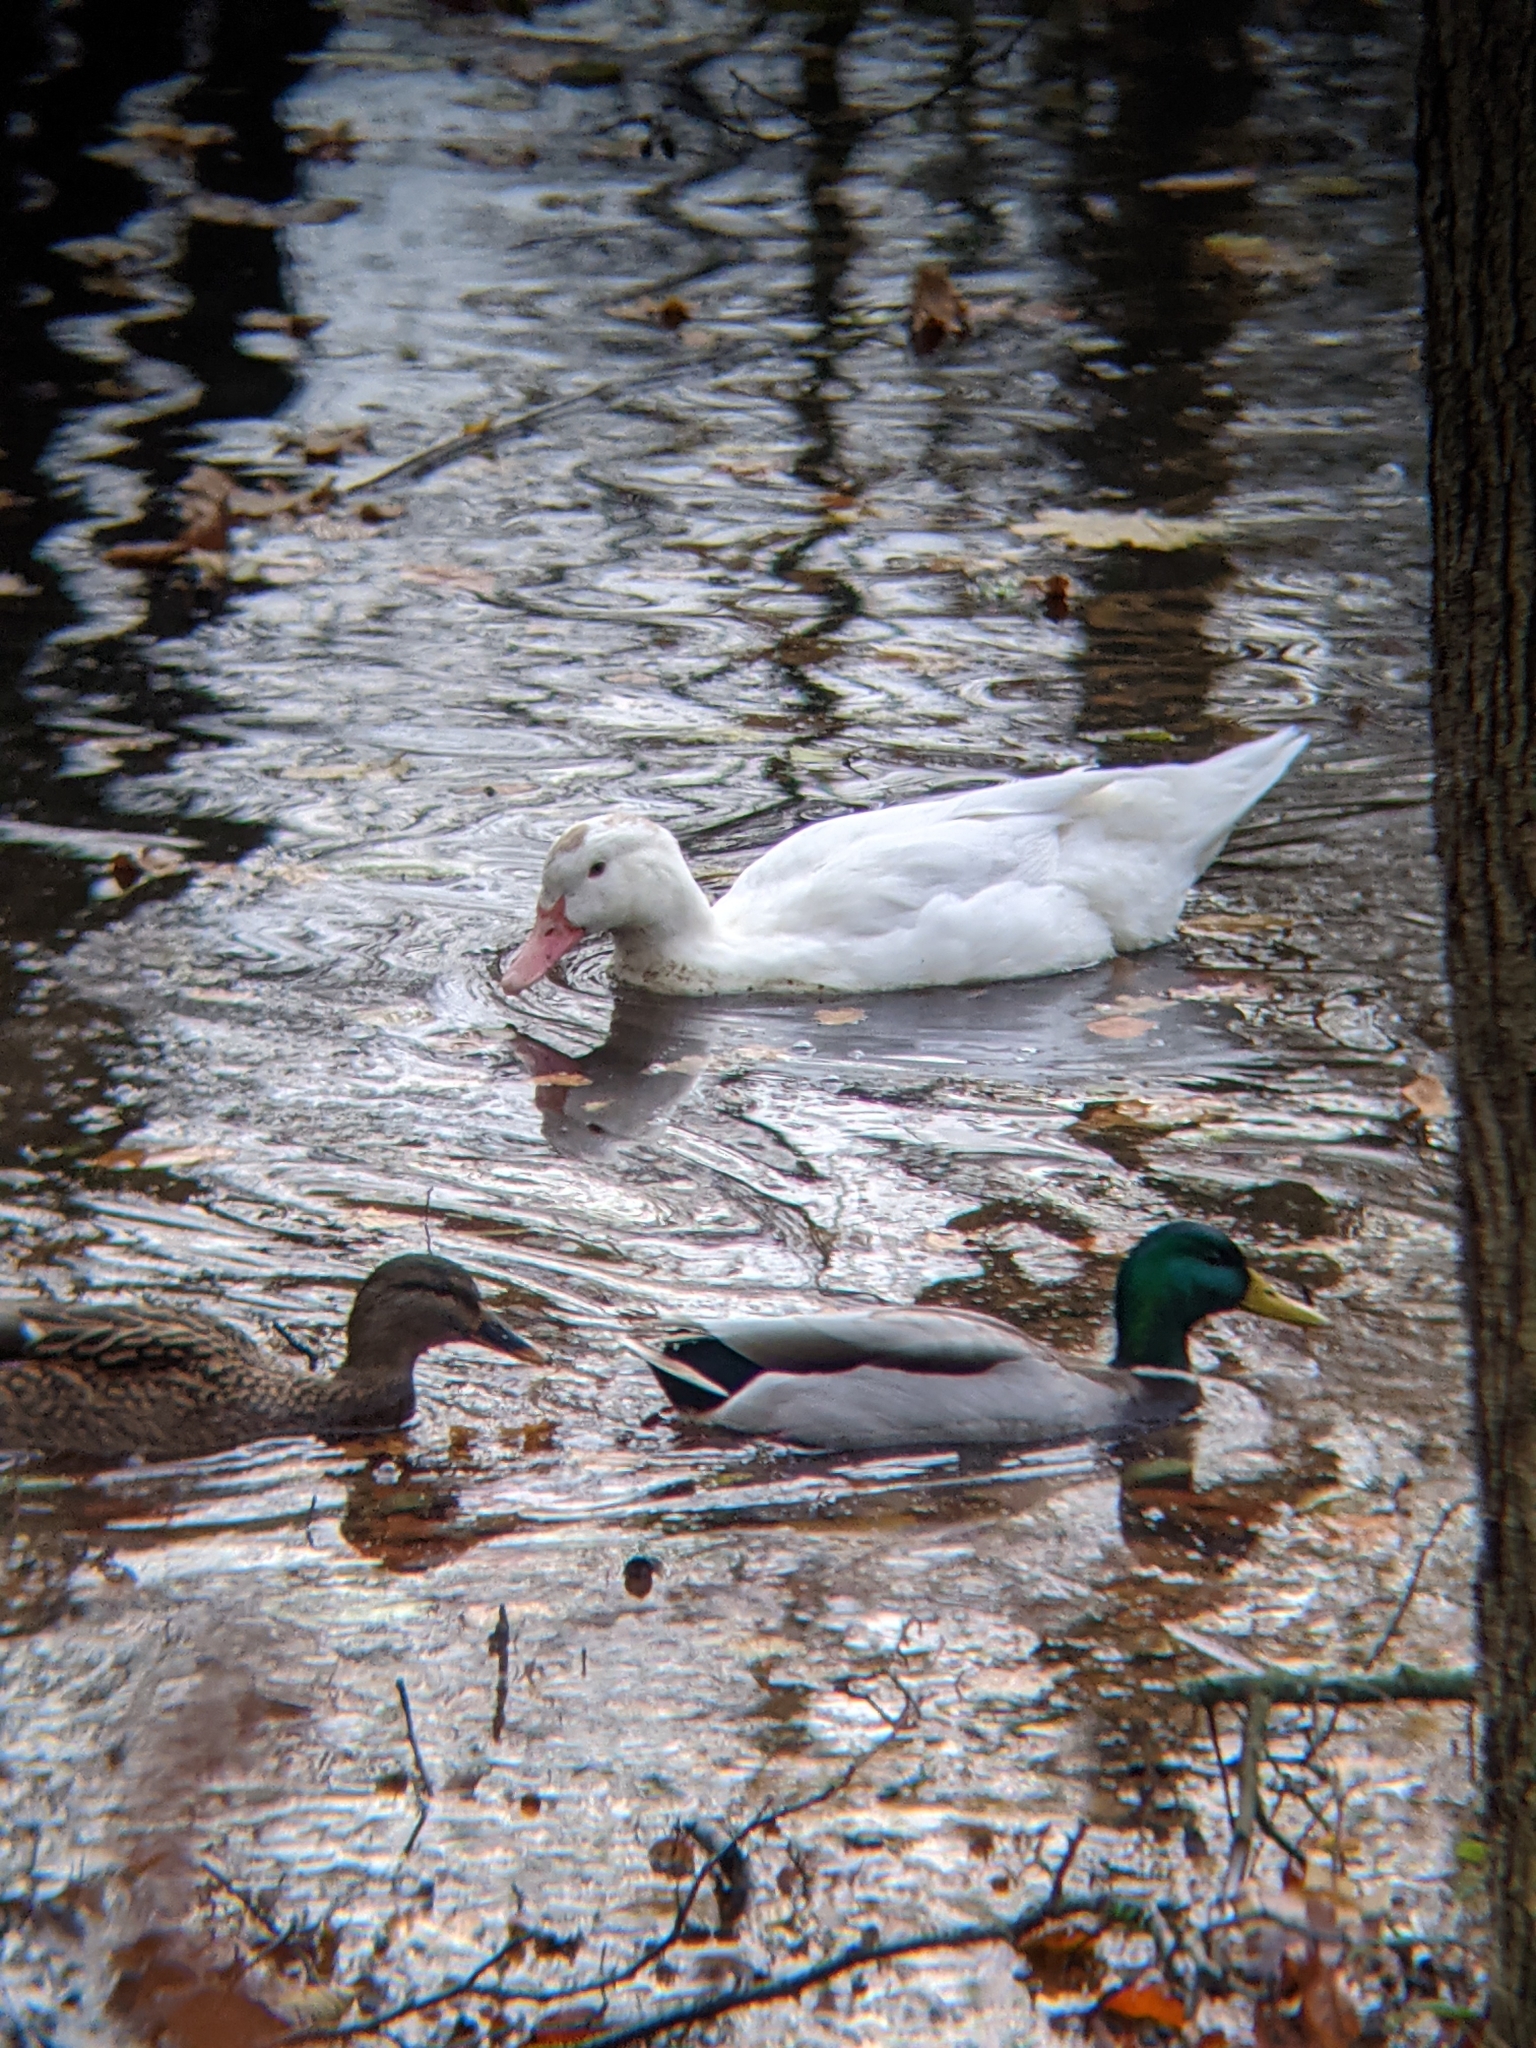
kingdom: Animalia
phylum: Chordata
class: Aves
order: Anseriformes
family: Anatidae
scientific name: Anatidae
